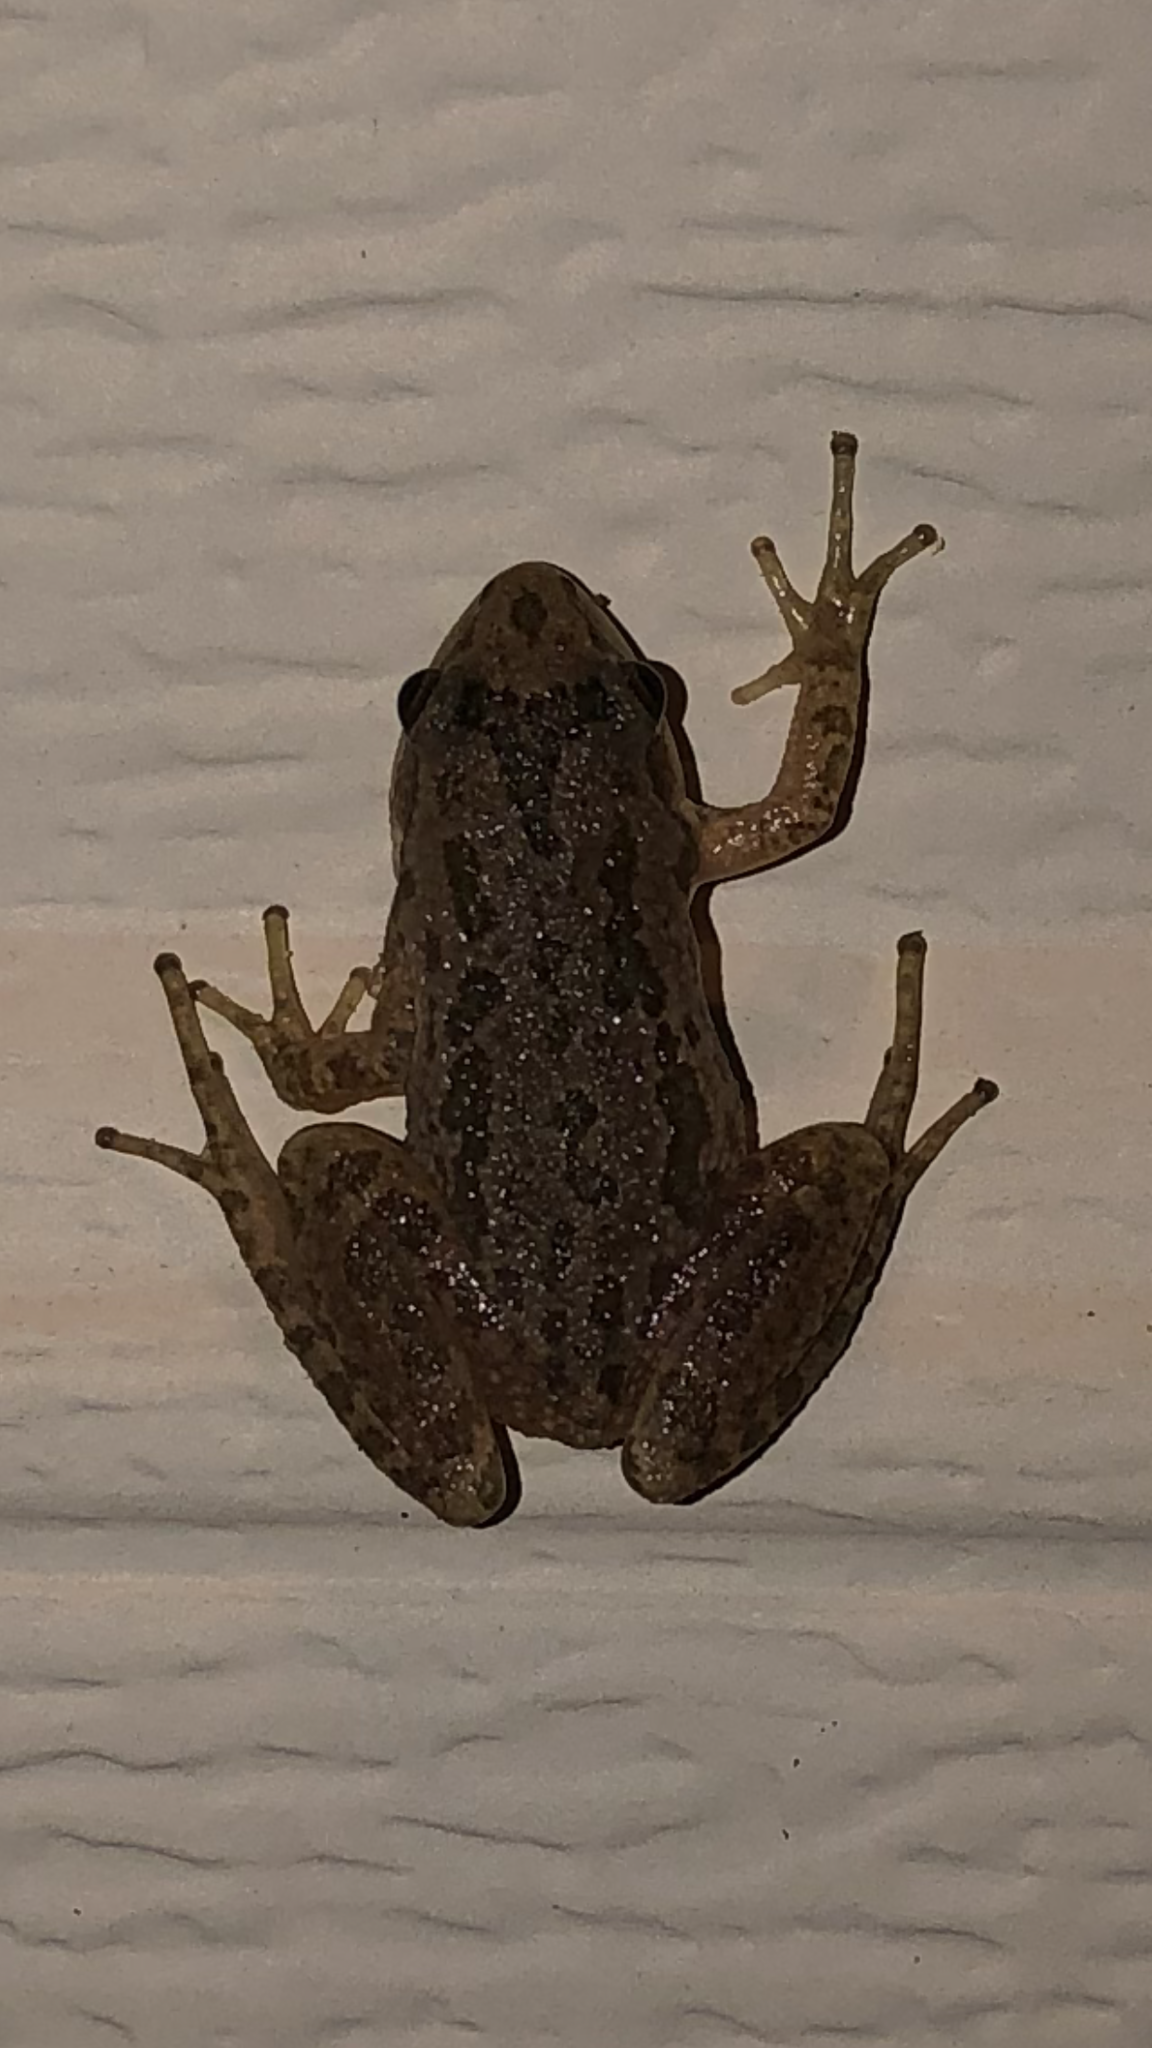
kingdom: Animalia
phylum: Chordata
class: Amphibia
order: Anura
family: Hylidae
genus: Pseudacris
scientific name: Pseudacris clarkii
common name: Spotted chorus frog
